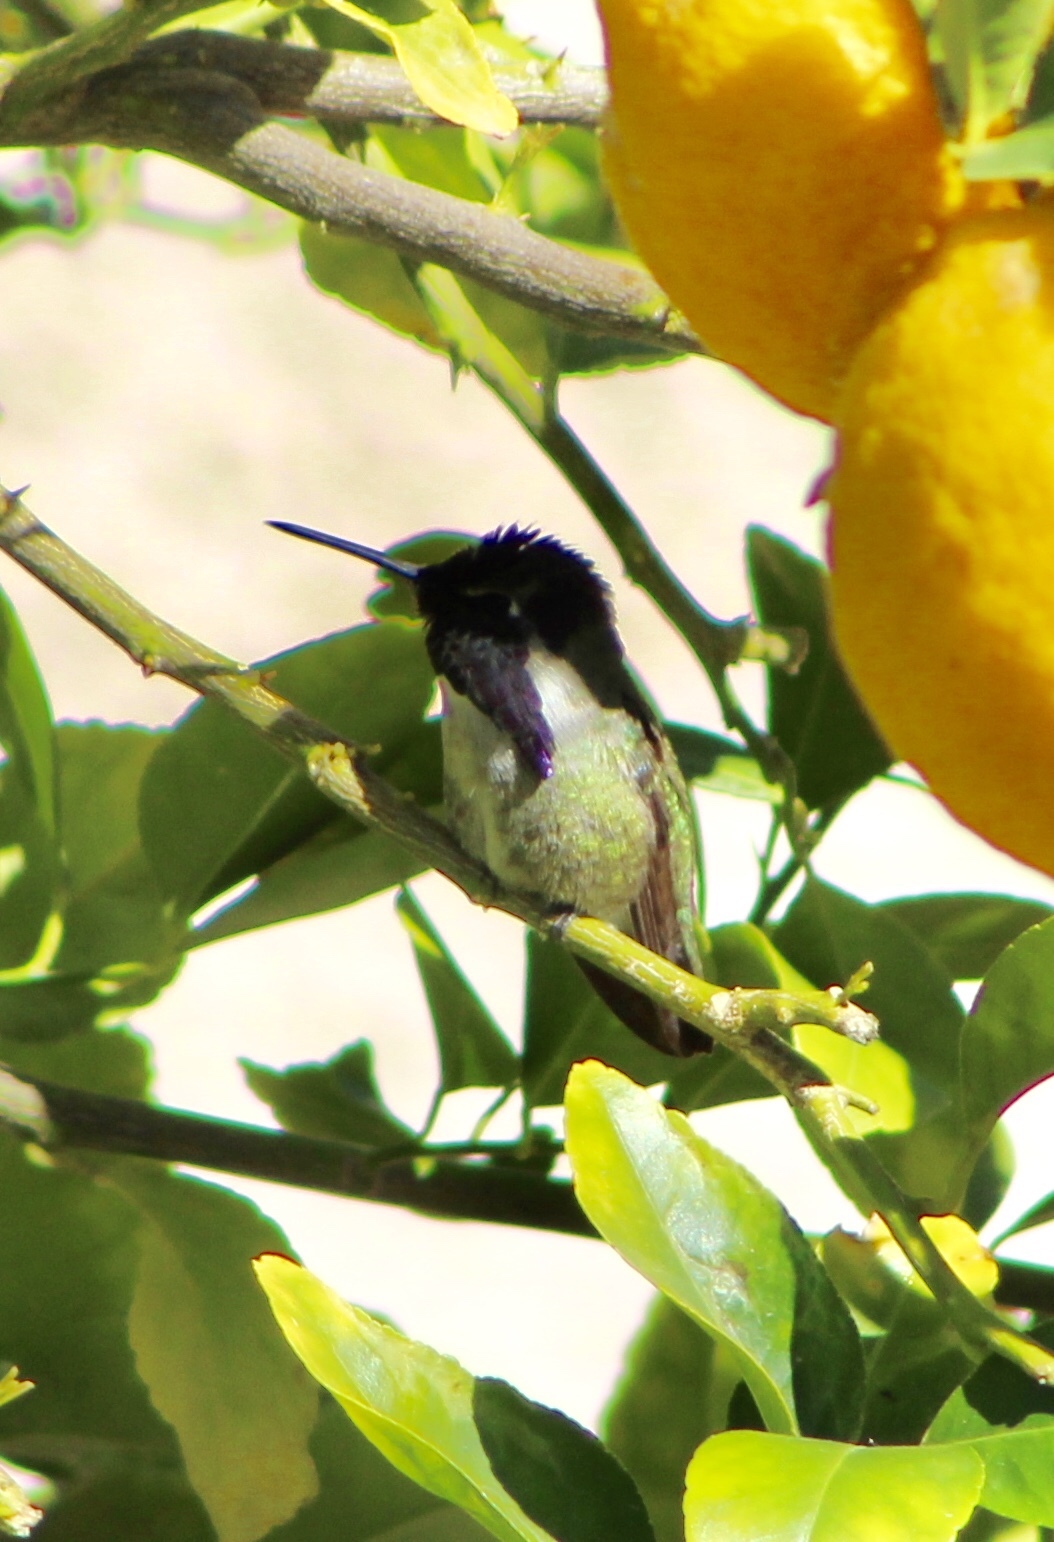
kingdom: Animalia
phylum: Chordata
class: Aves
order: Apodiformes
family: Trochilidae
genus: Calypte
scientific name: Calypte costae
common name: Costa's hummingbird
